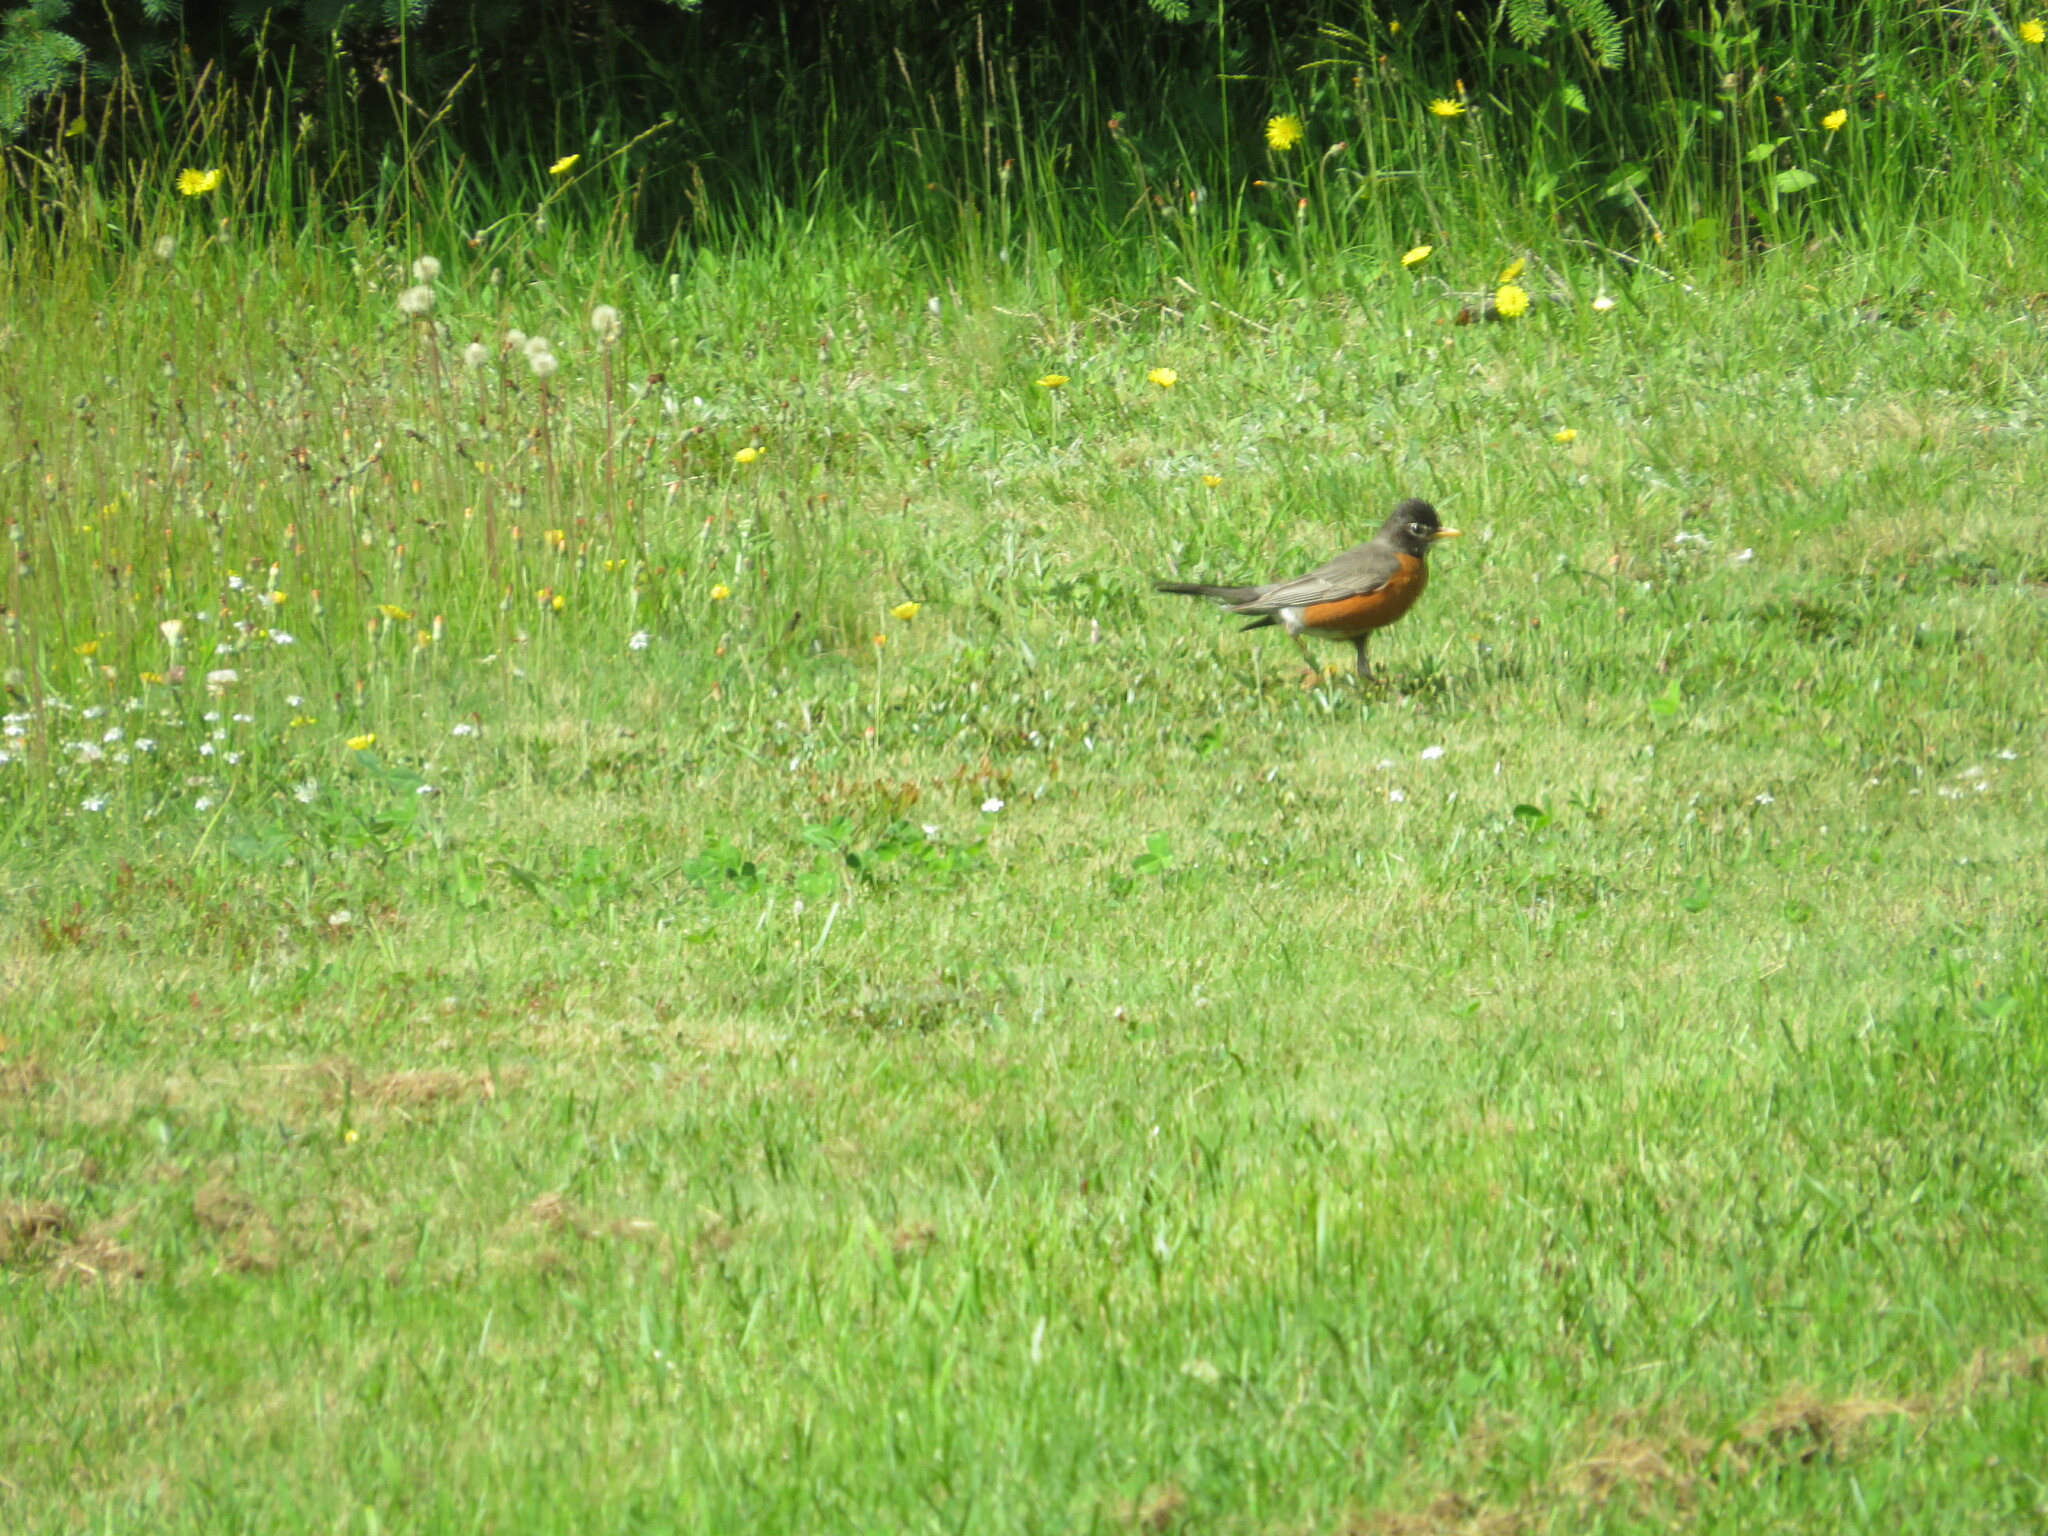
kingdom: Animalia
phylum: Chordata
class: Aves
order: Passeriformes
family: Turdidae
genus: Turdus
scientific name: Turdus migratorius
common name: American robin
